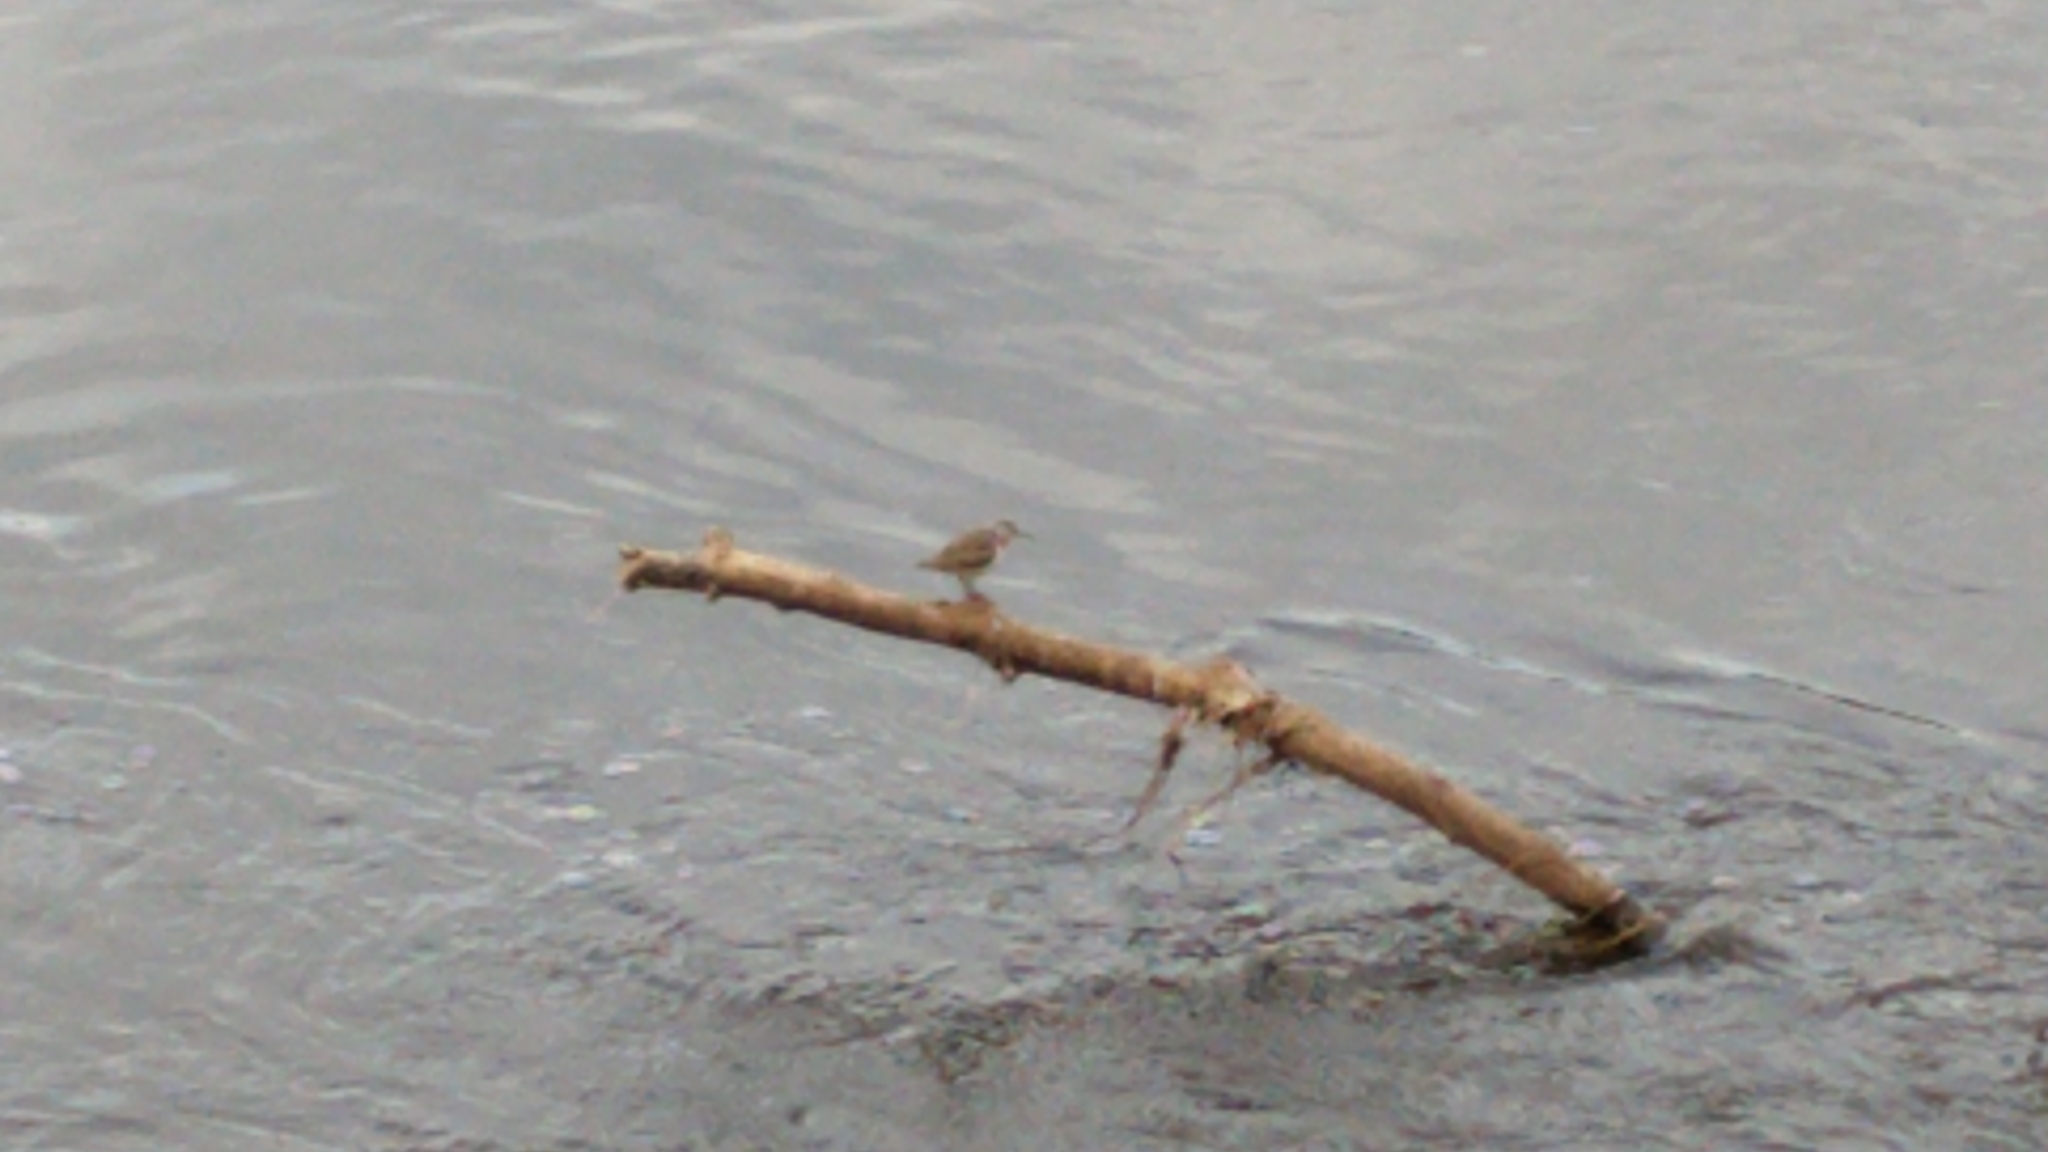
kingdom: Animalia
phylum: Chordata
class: Aves
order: Charadriiformes
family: Scolopacidae
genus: Actitis
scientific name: Actitis hypoleucos
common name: Common sandpiper
